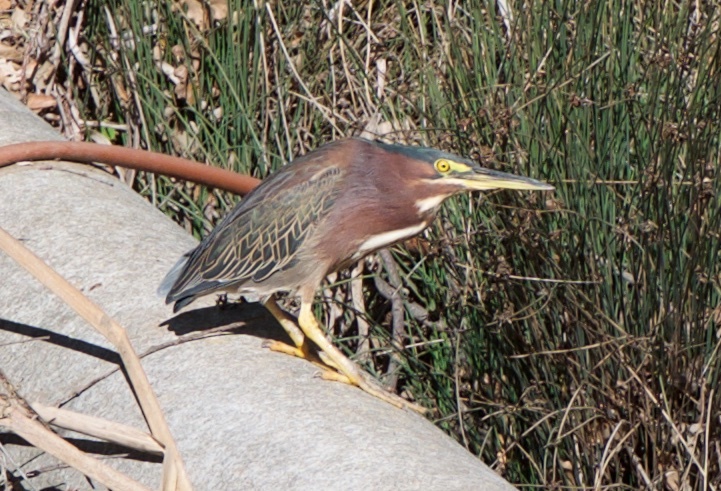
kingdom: Animalia
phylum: Chordata
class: Aves
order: Pelecaniformes
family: Ardeidae
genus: Butorides
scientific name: Butorides virescens
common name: Green heron
